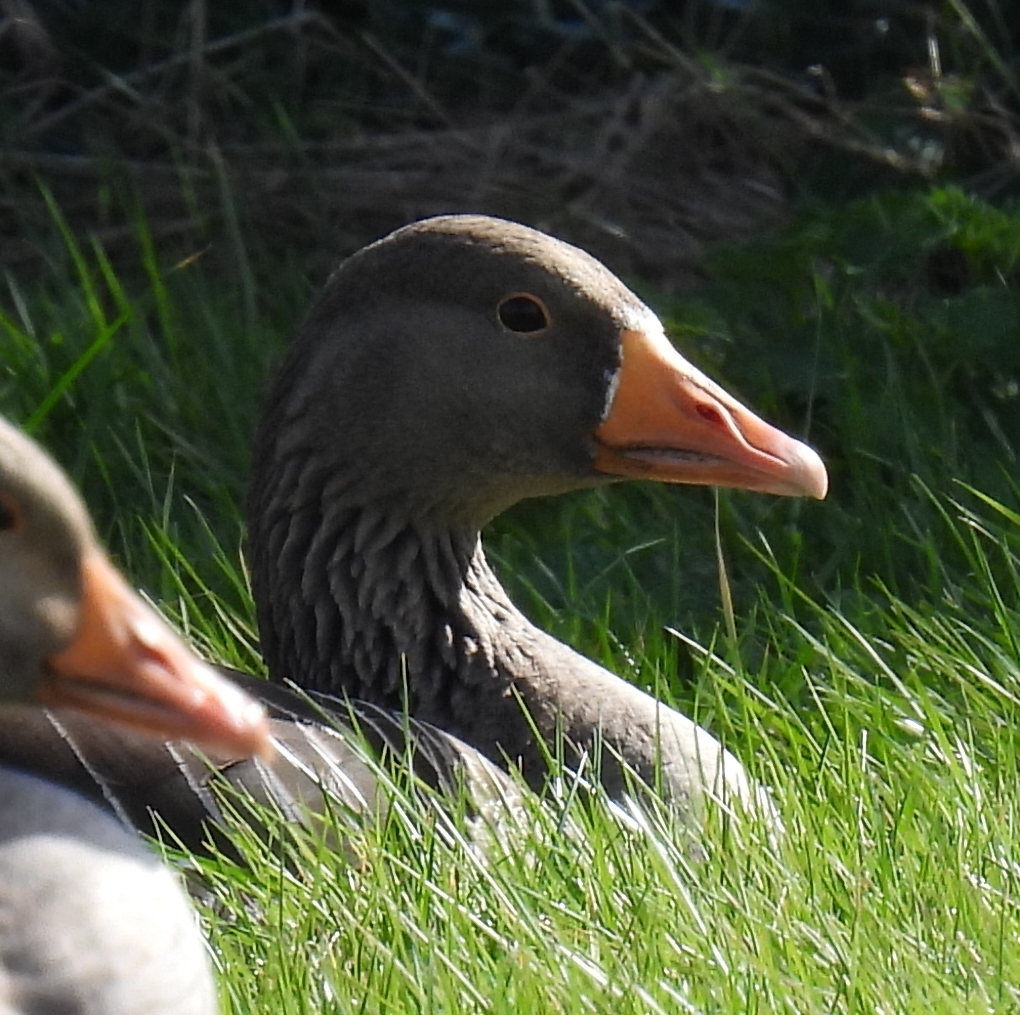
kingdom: Animalia
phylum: Chordata
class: Aves
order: Anseriformes
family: Anatidae
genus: Anser
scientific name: Anser anser
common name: Greylag goose
